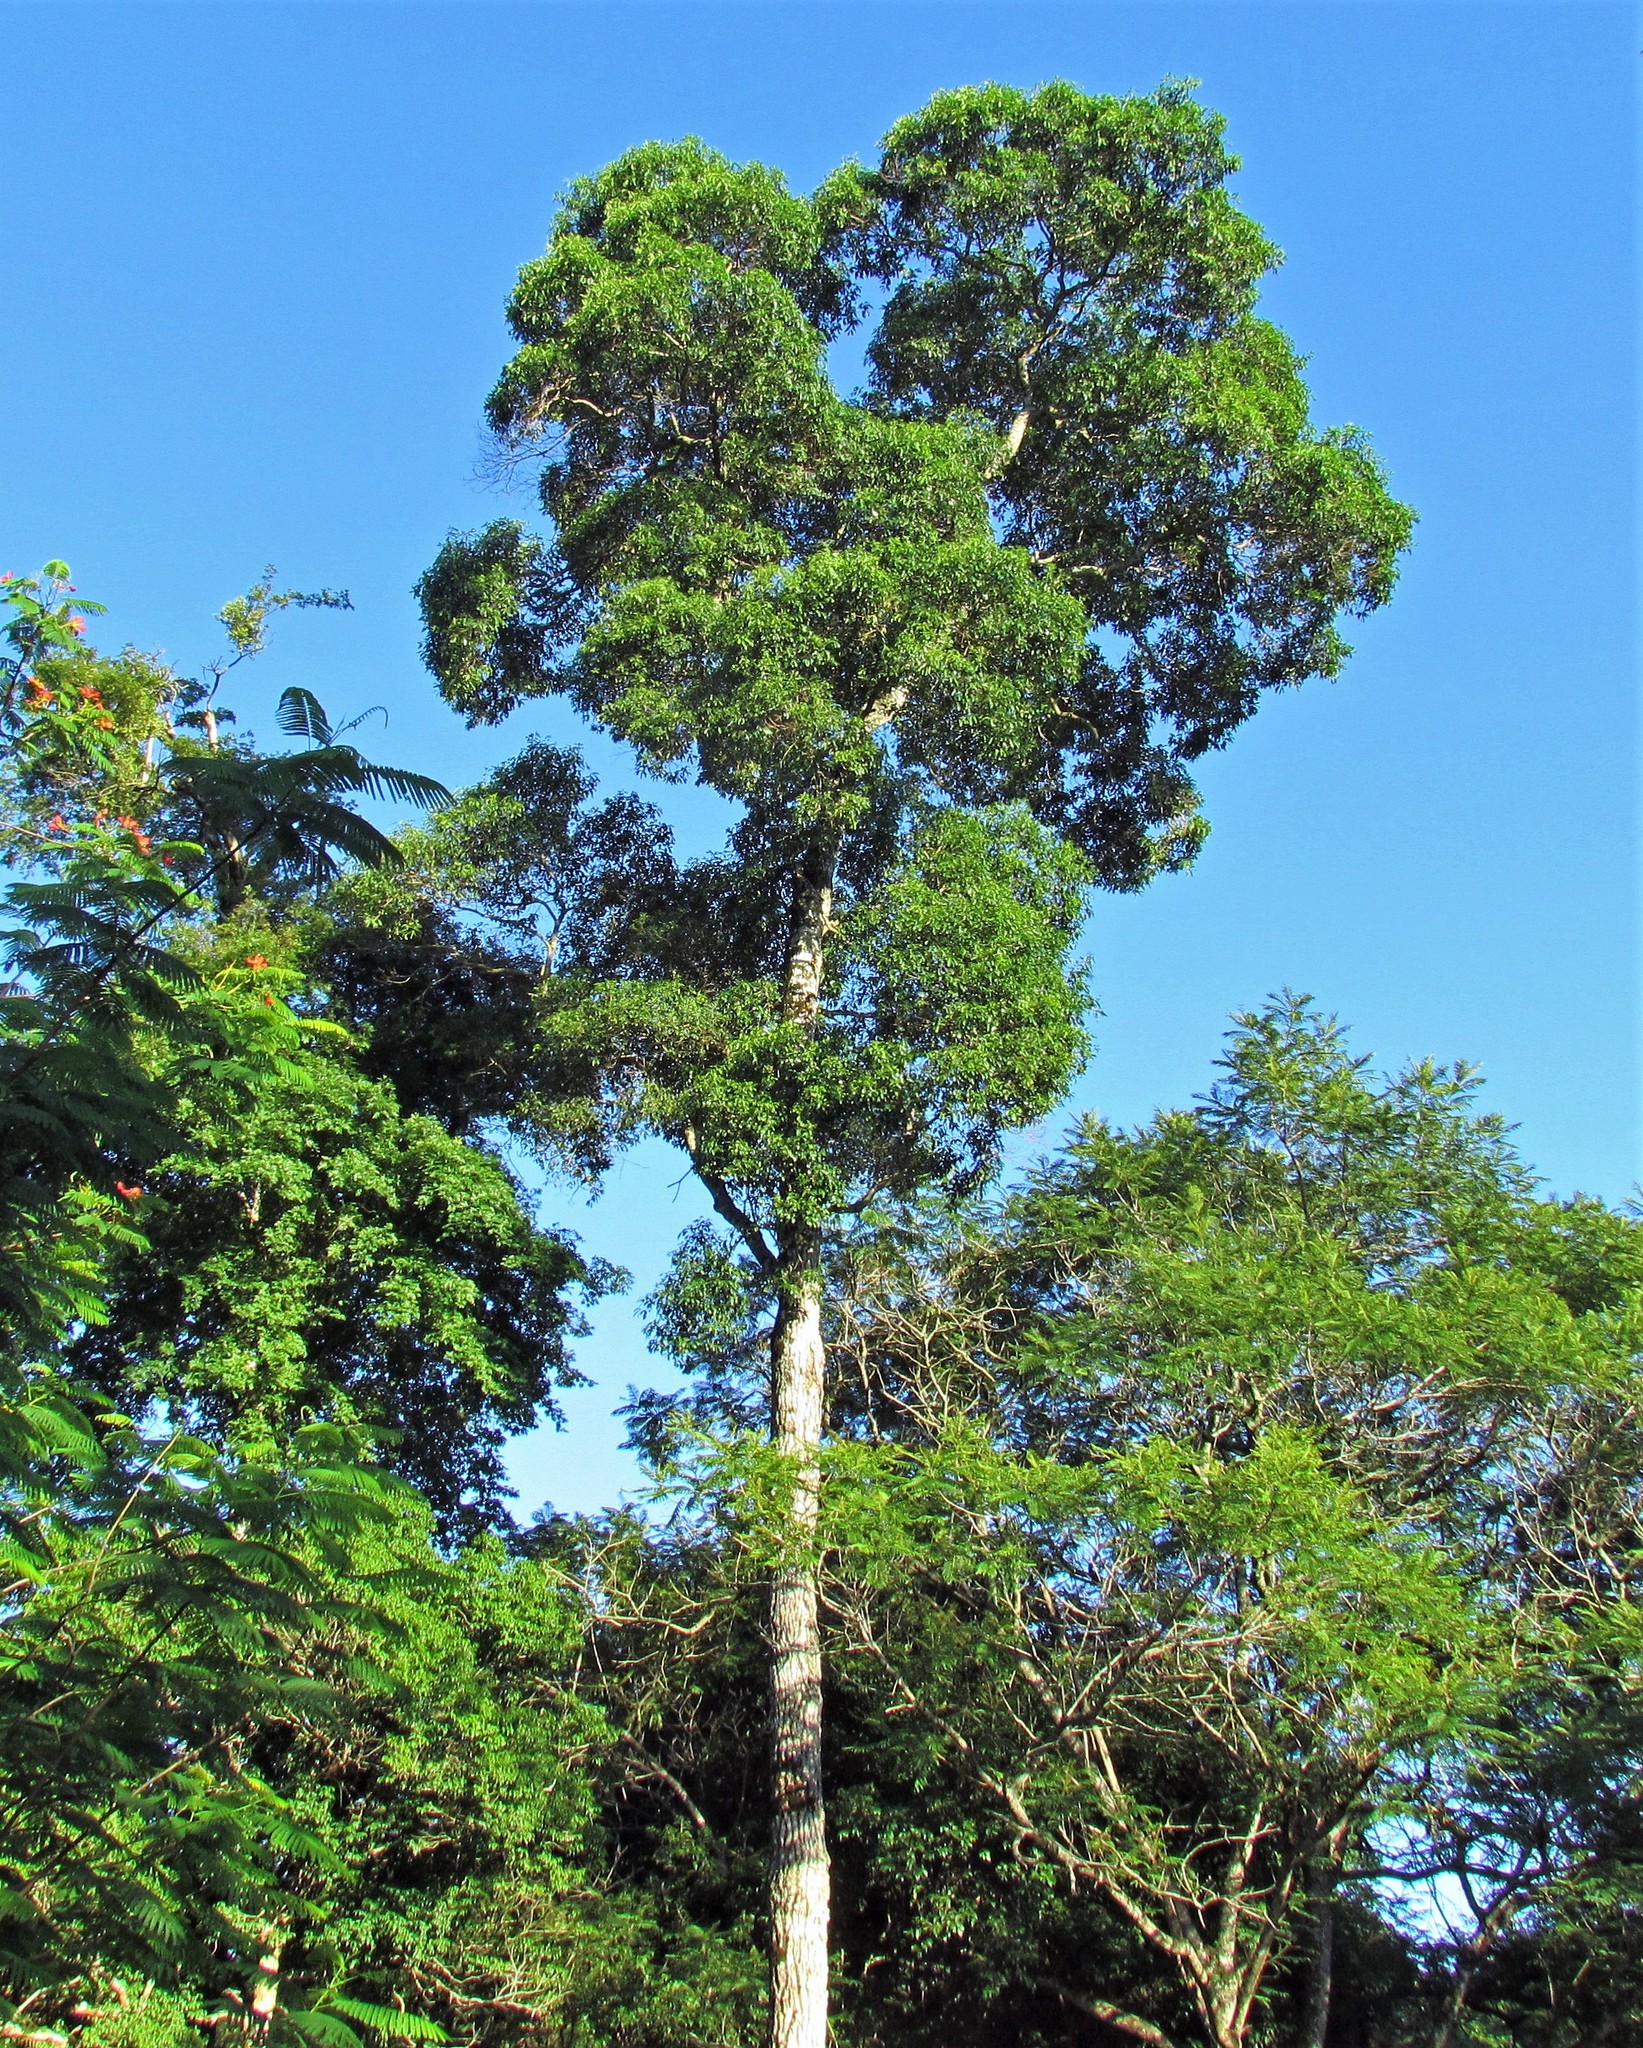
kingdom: Plantae
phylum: Tracheophyta
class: Magnoliopsida
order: Gentianales
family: Apocynaceae
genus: Aspidosperma
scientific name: Aspidosperma polyneuron
